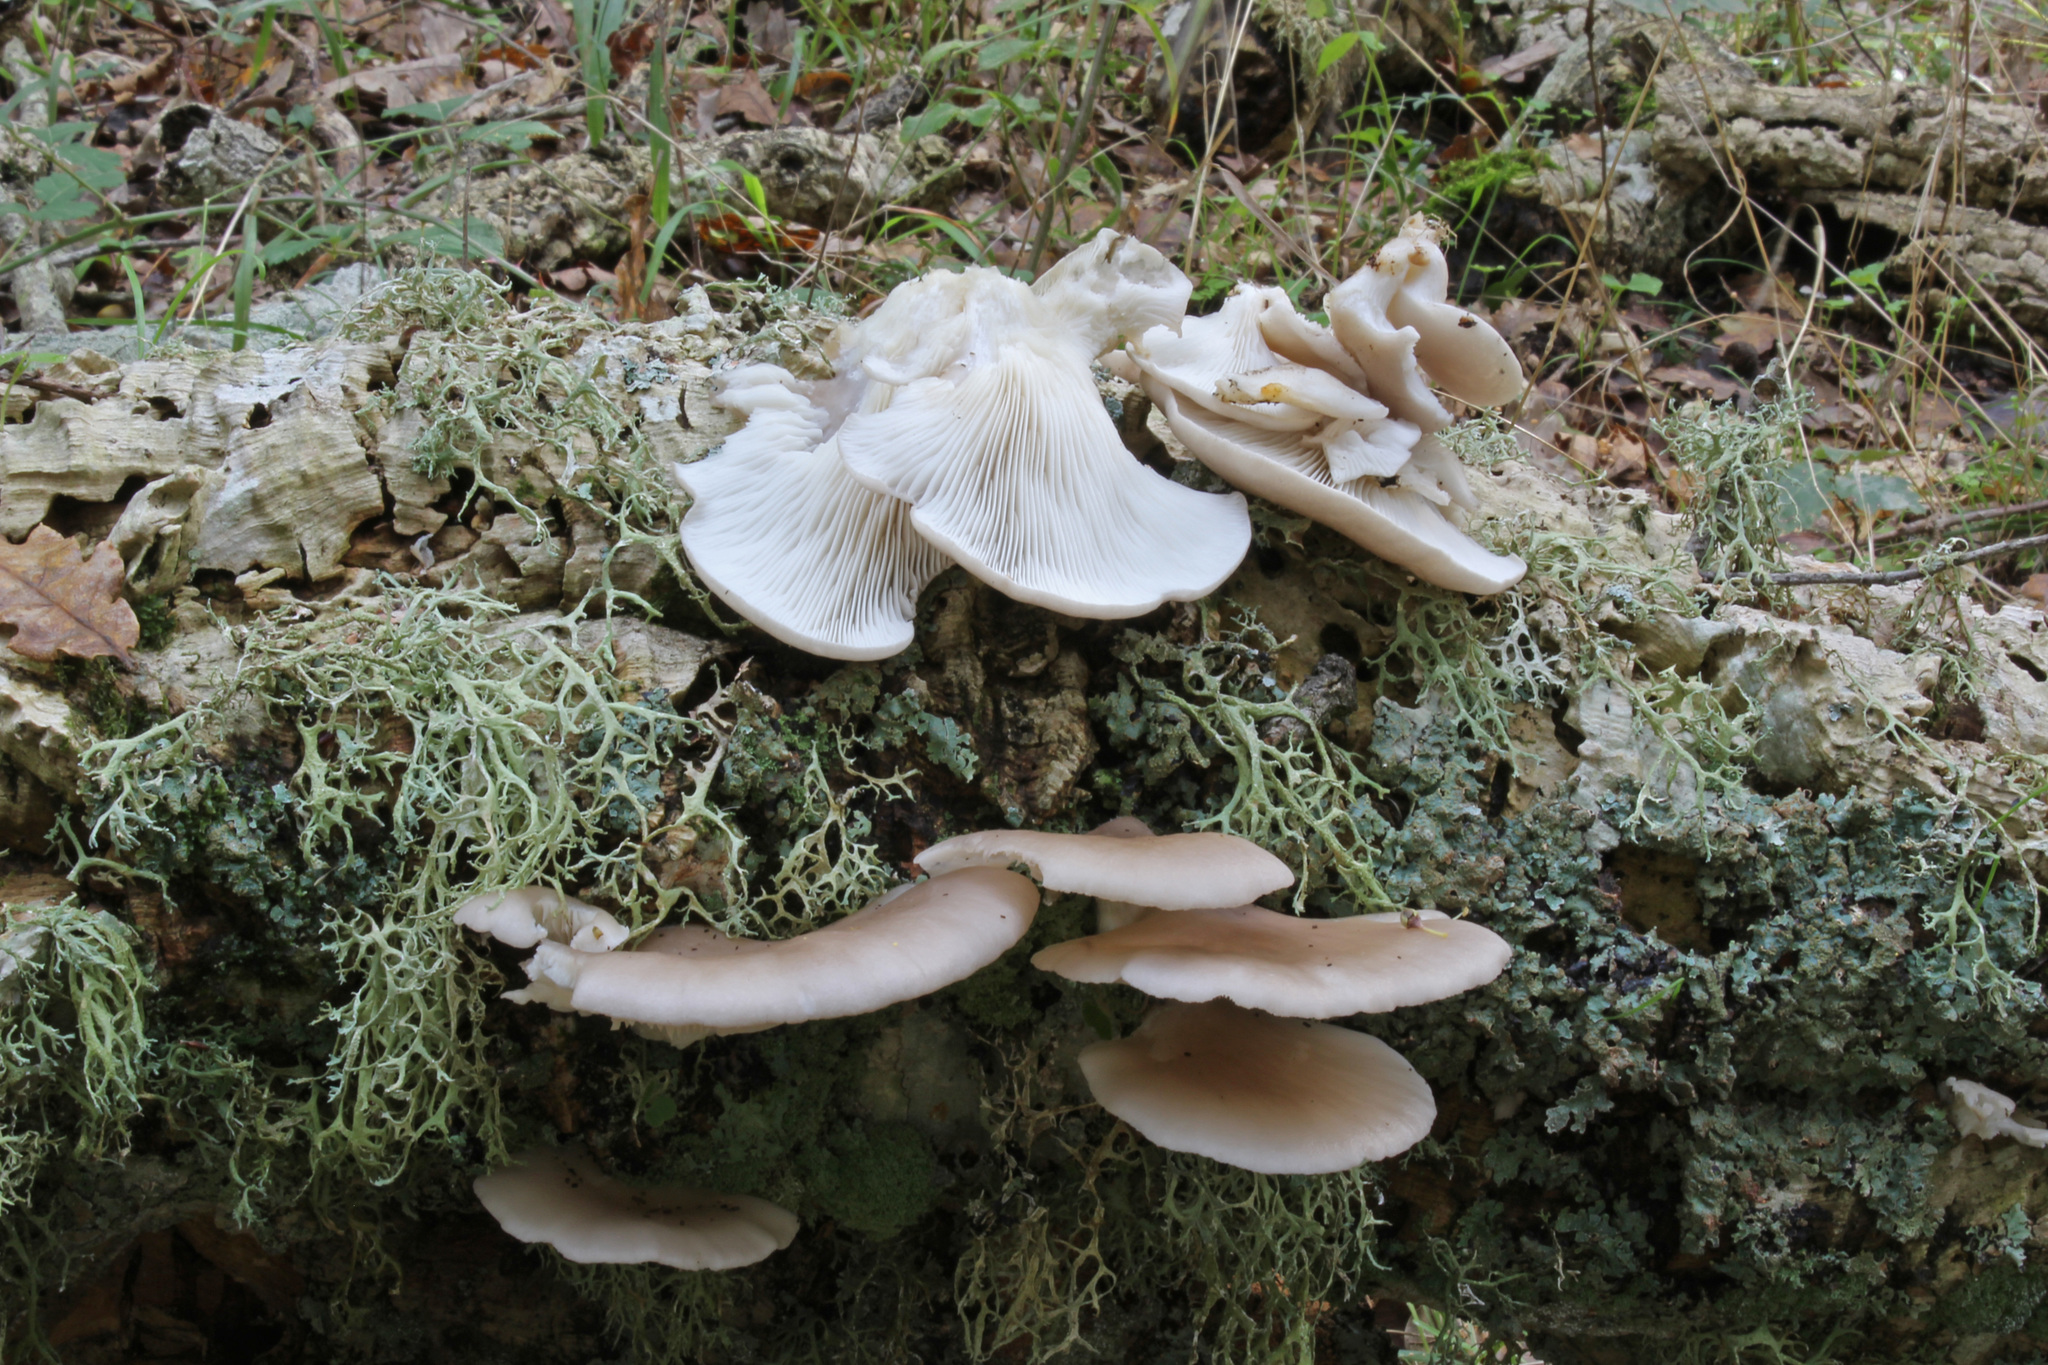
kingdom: Fungi
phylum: Basidiomycota
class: Agaricomycetes
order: Agaricales
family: Pleurotaceae
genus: Pleurotus
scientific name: Pleurotus ostreatus
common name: Oyster mushroom
